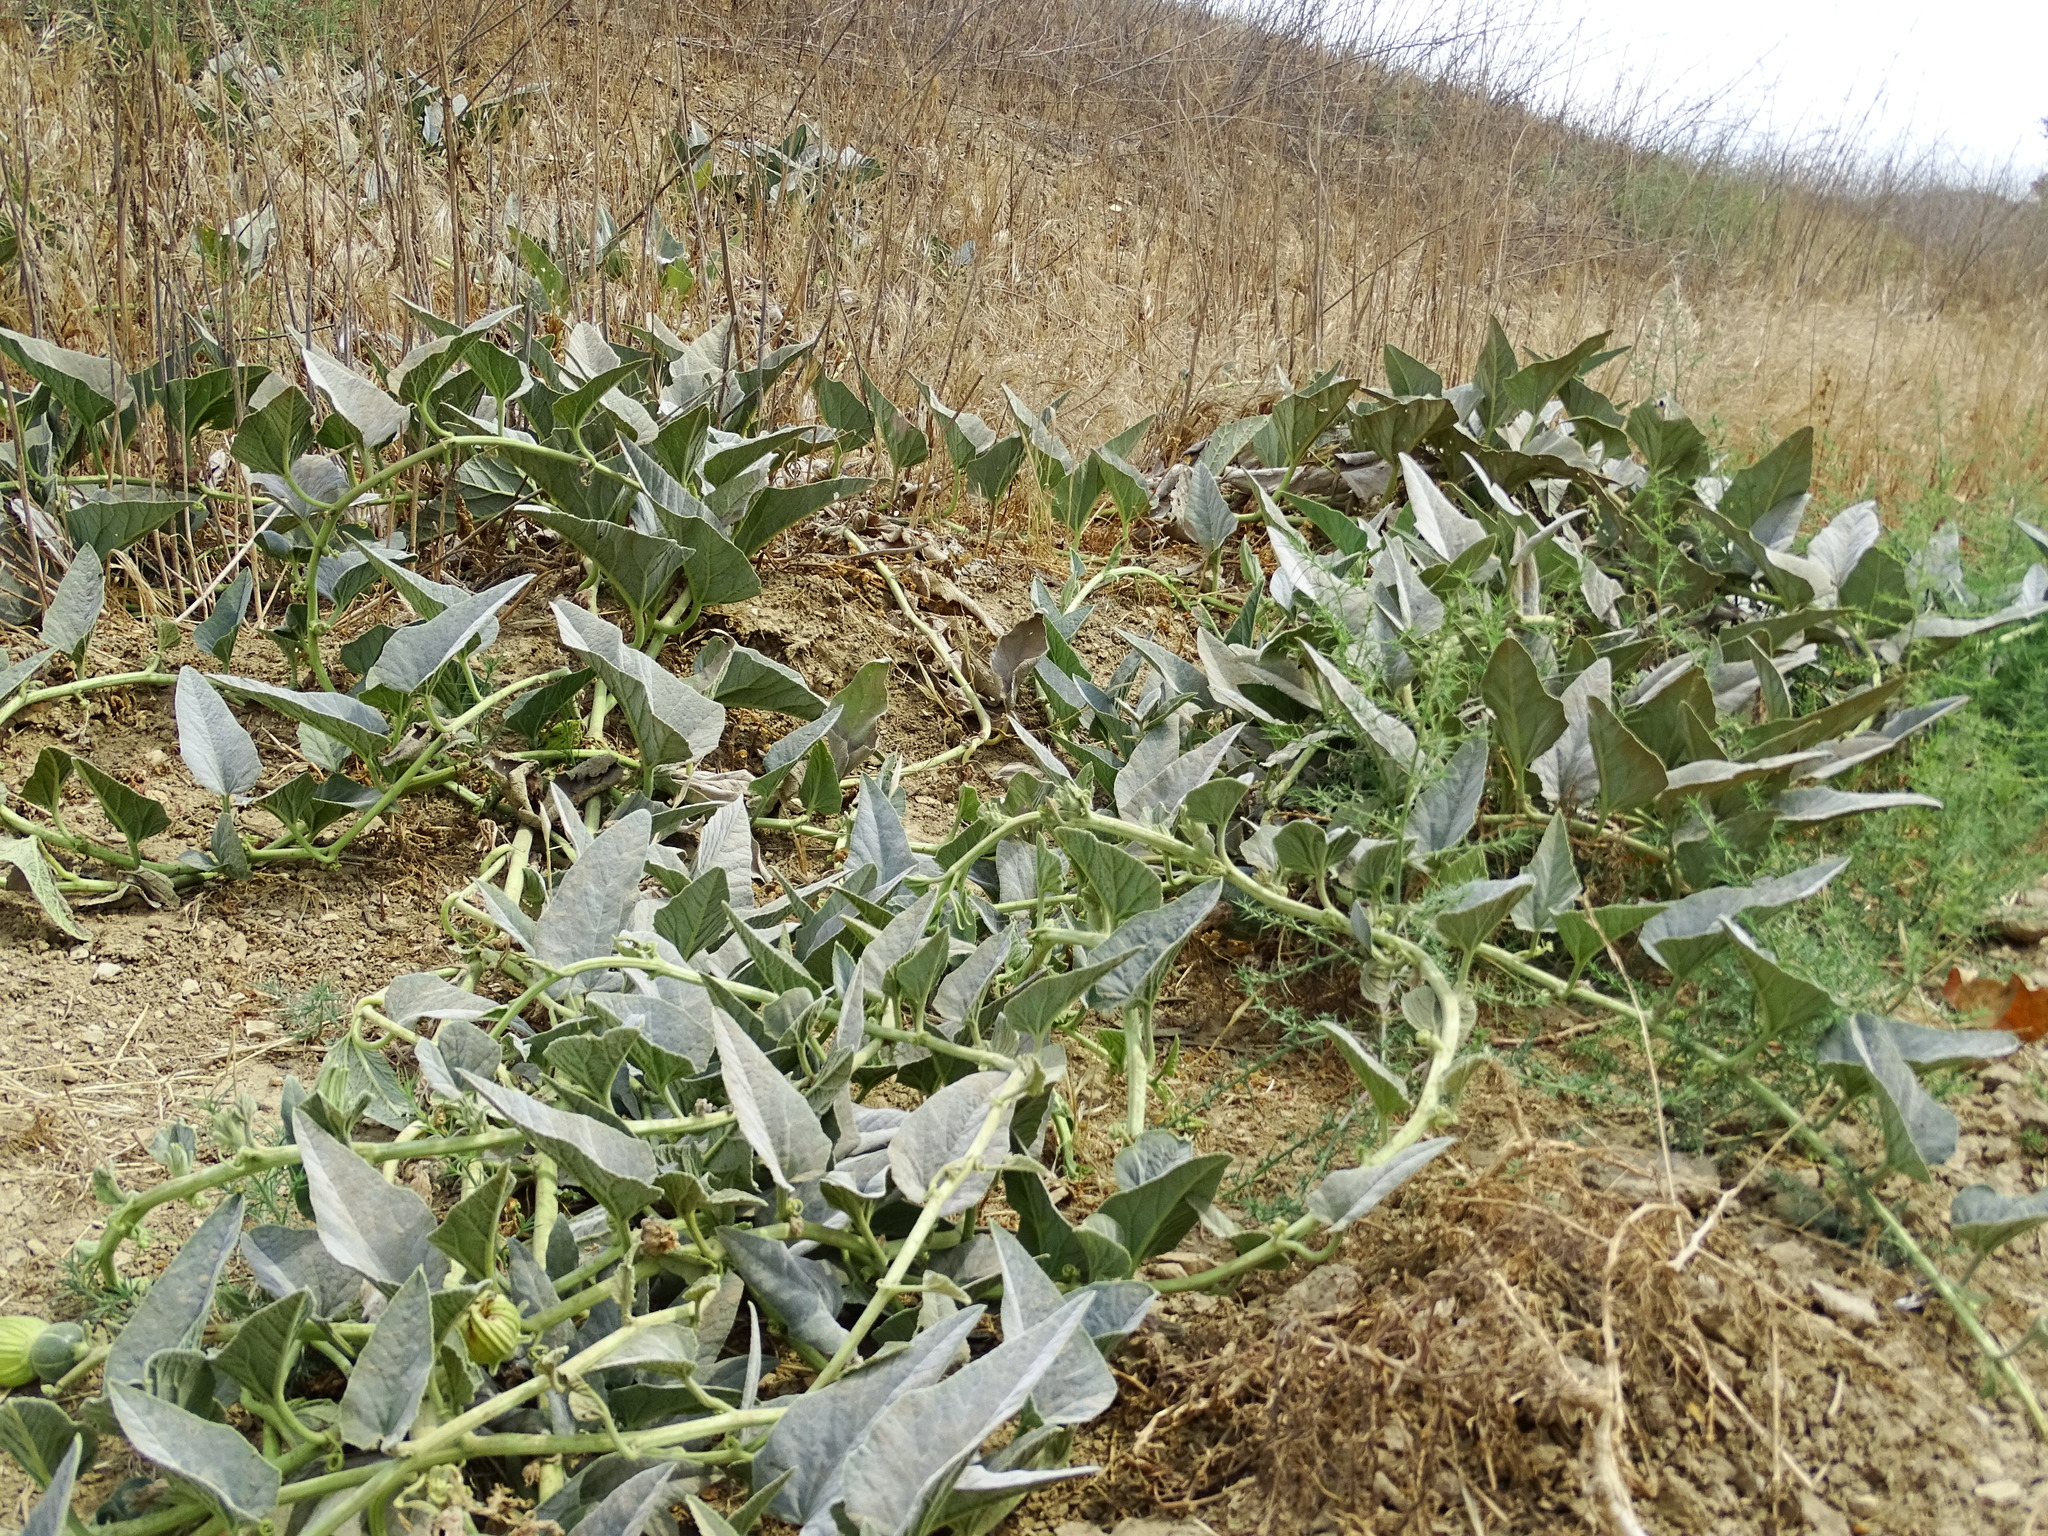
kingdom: Plantae
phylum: Tracheophyta
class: Magnoliopsida
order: Cucurbitales
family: Cucurbitaceae
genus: Cucurbita
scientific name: Cucurbita foetidissima
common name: Buffalo gourd
